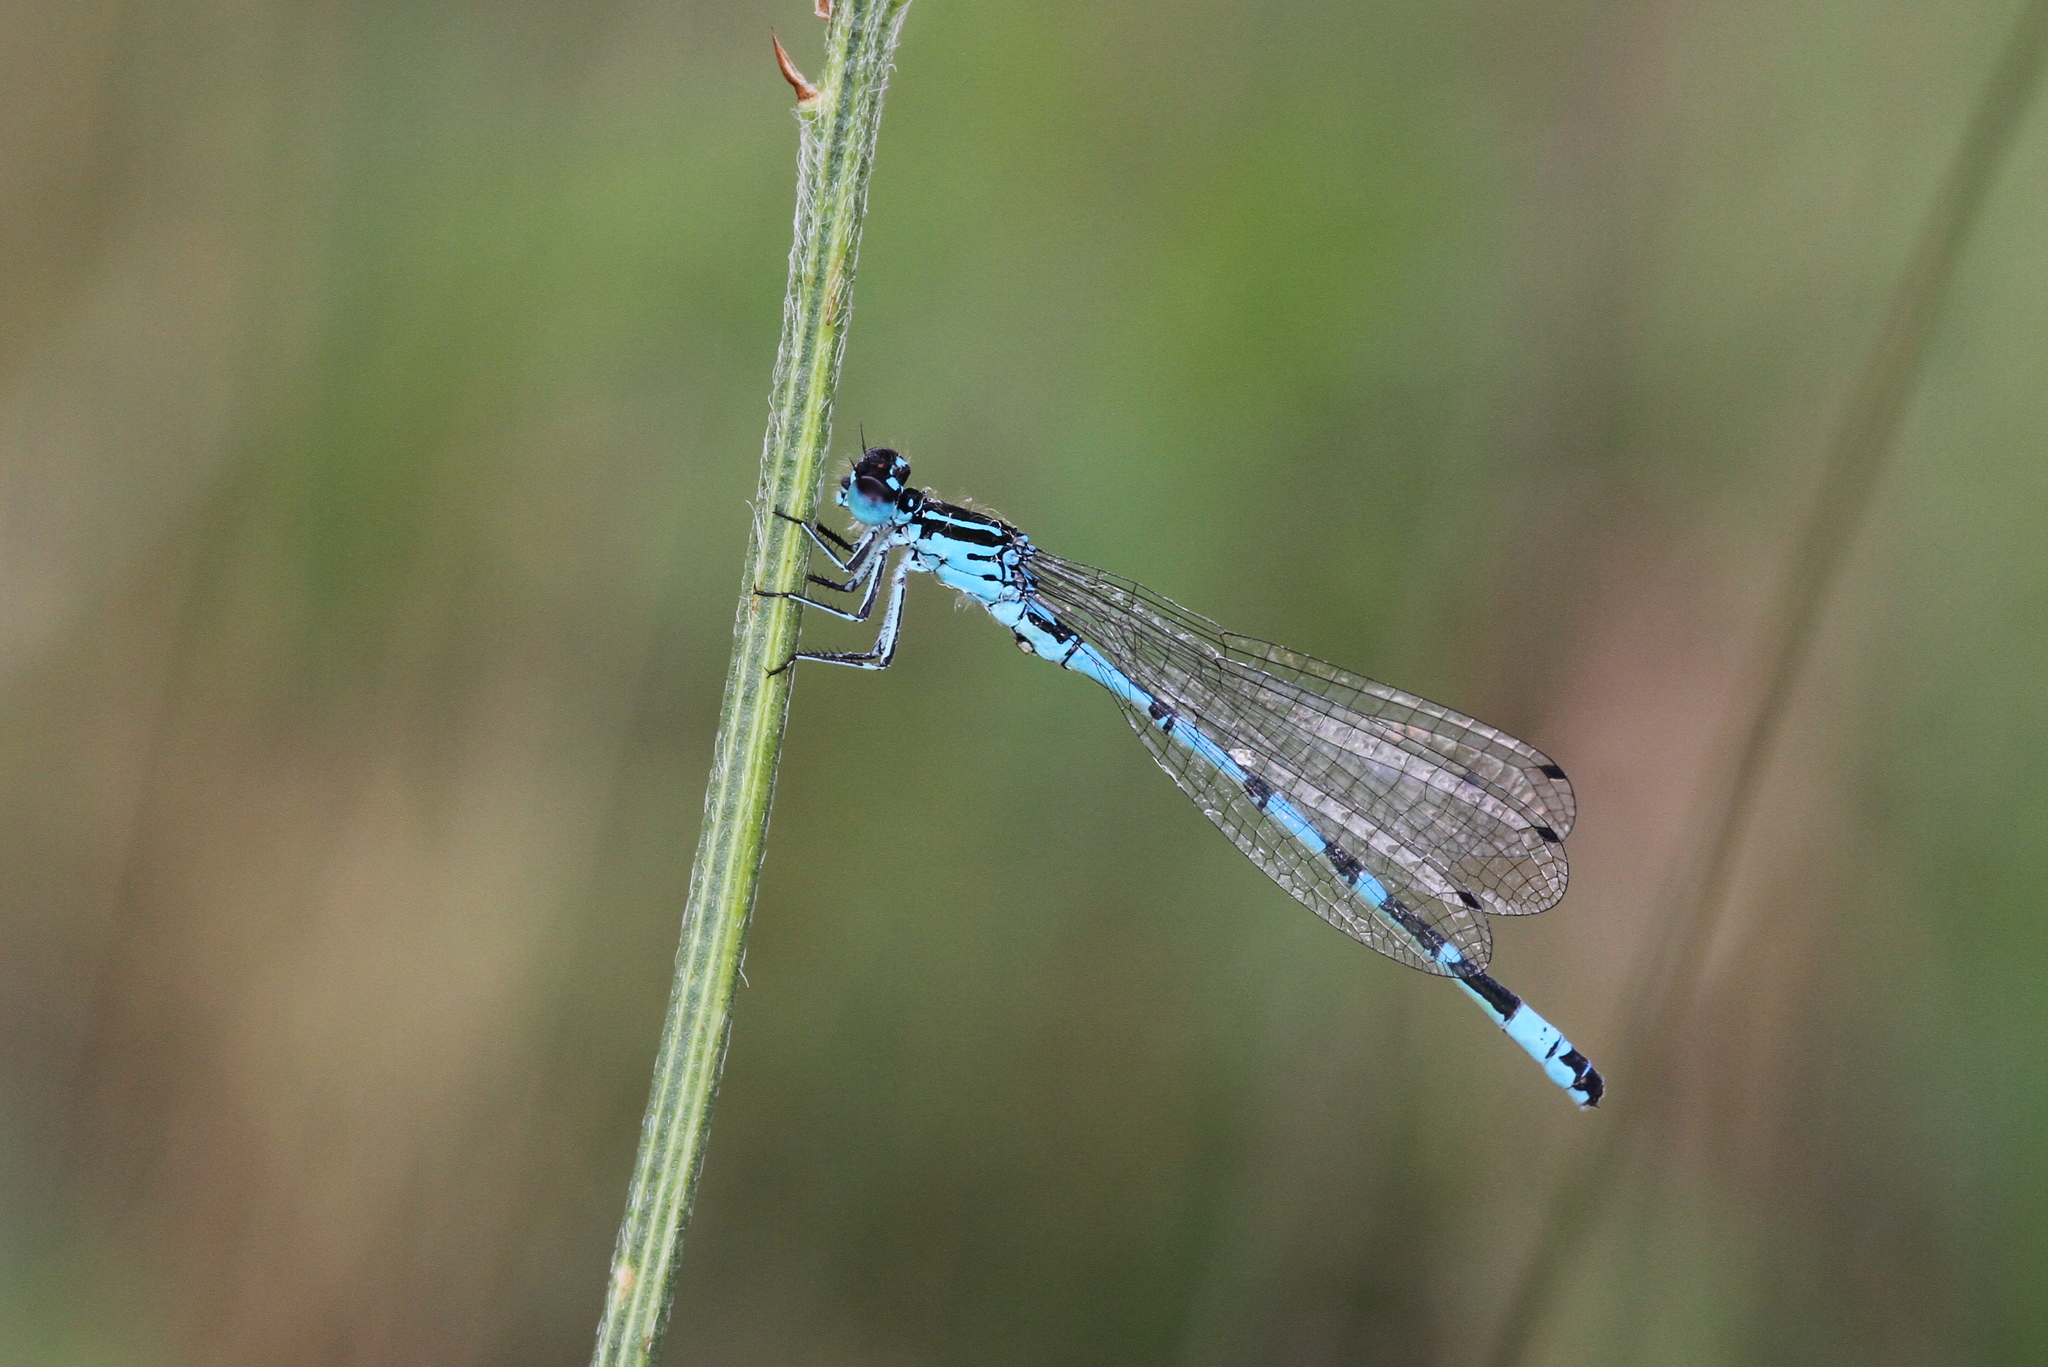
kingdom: Animalia
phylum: Arthropoda
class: Insecta
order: Odonata
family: Coenagrionidae
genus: Coenagrion
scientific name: Coenagrion ornatum
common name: Ornate bluet
